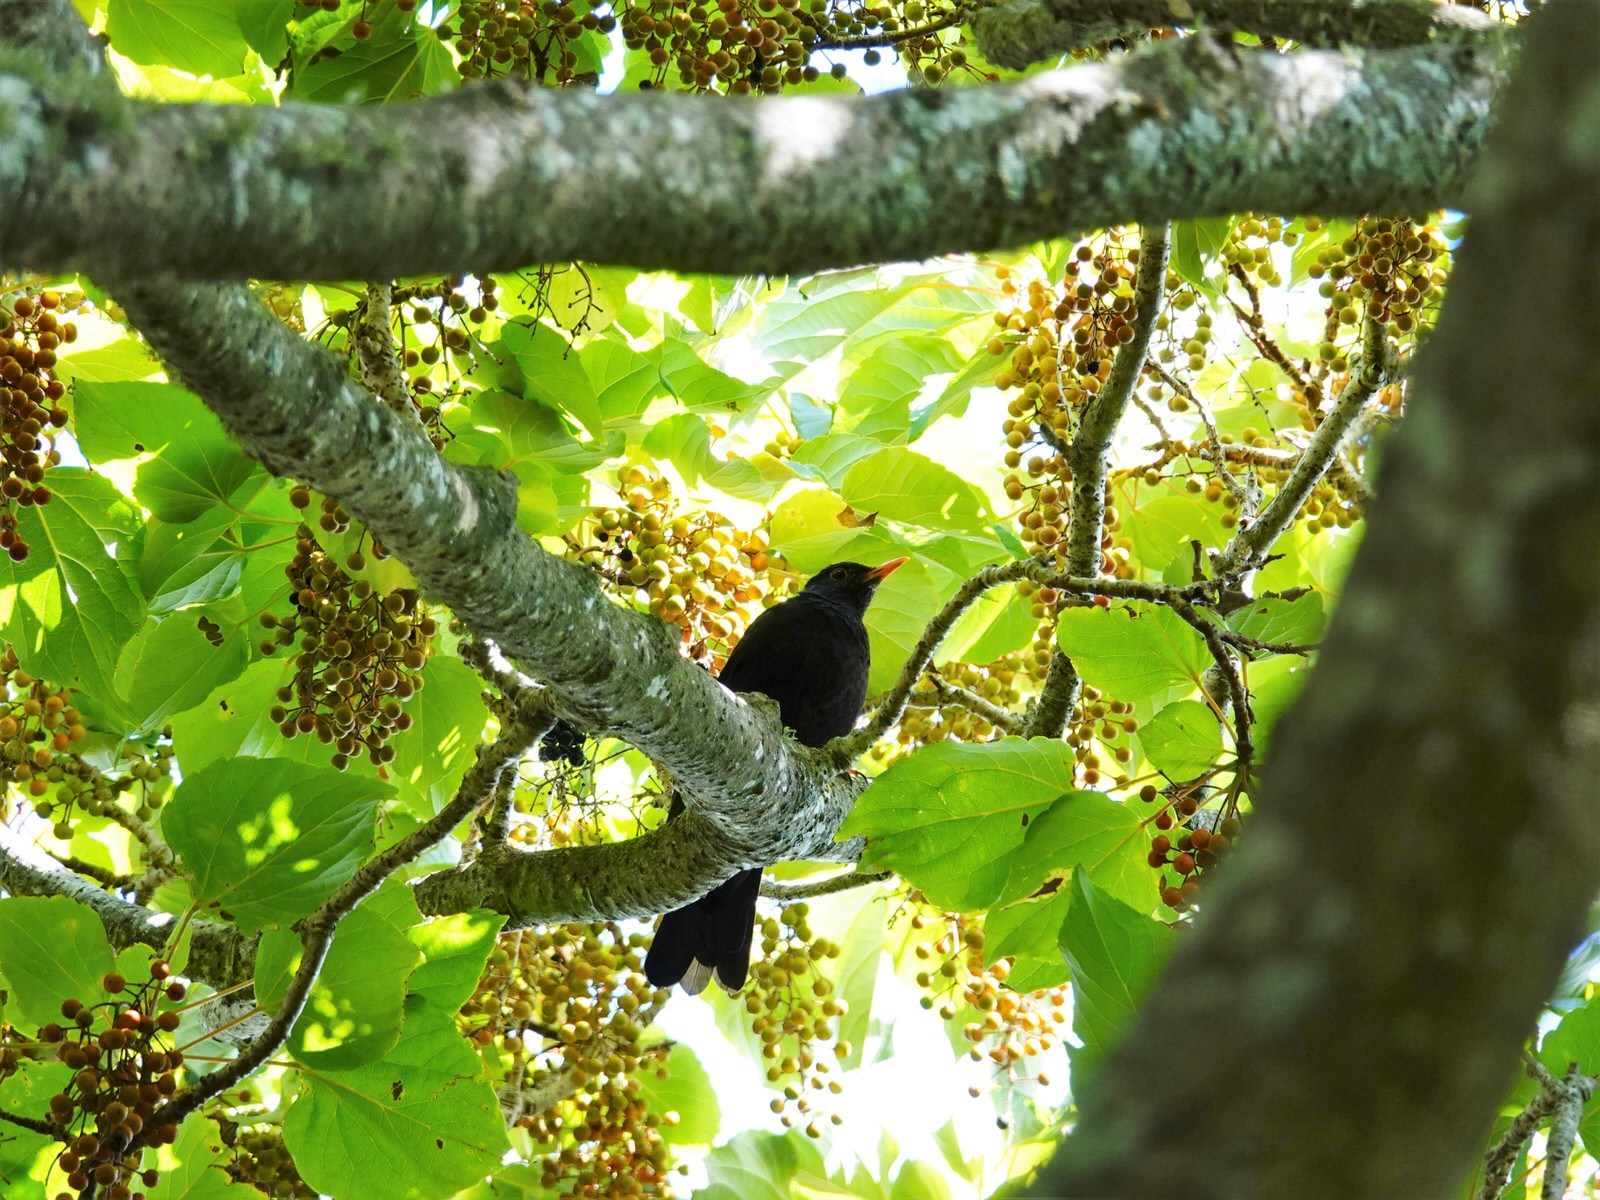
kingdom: Animalia
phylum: Chordata
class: Aves
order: Passeriformes
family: Turdidae
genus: Turdus
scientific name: Turdus merula
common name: Common blackbird
